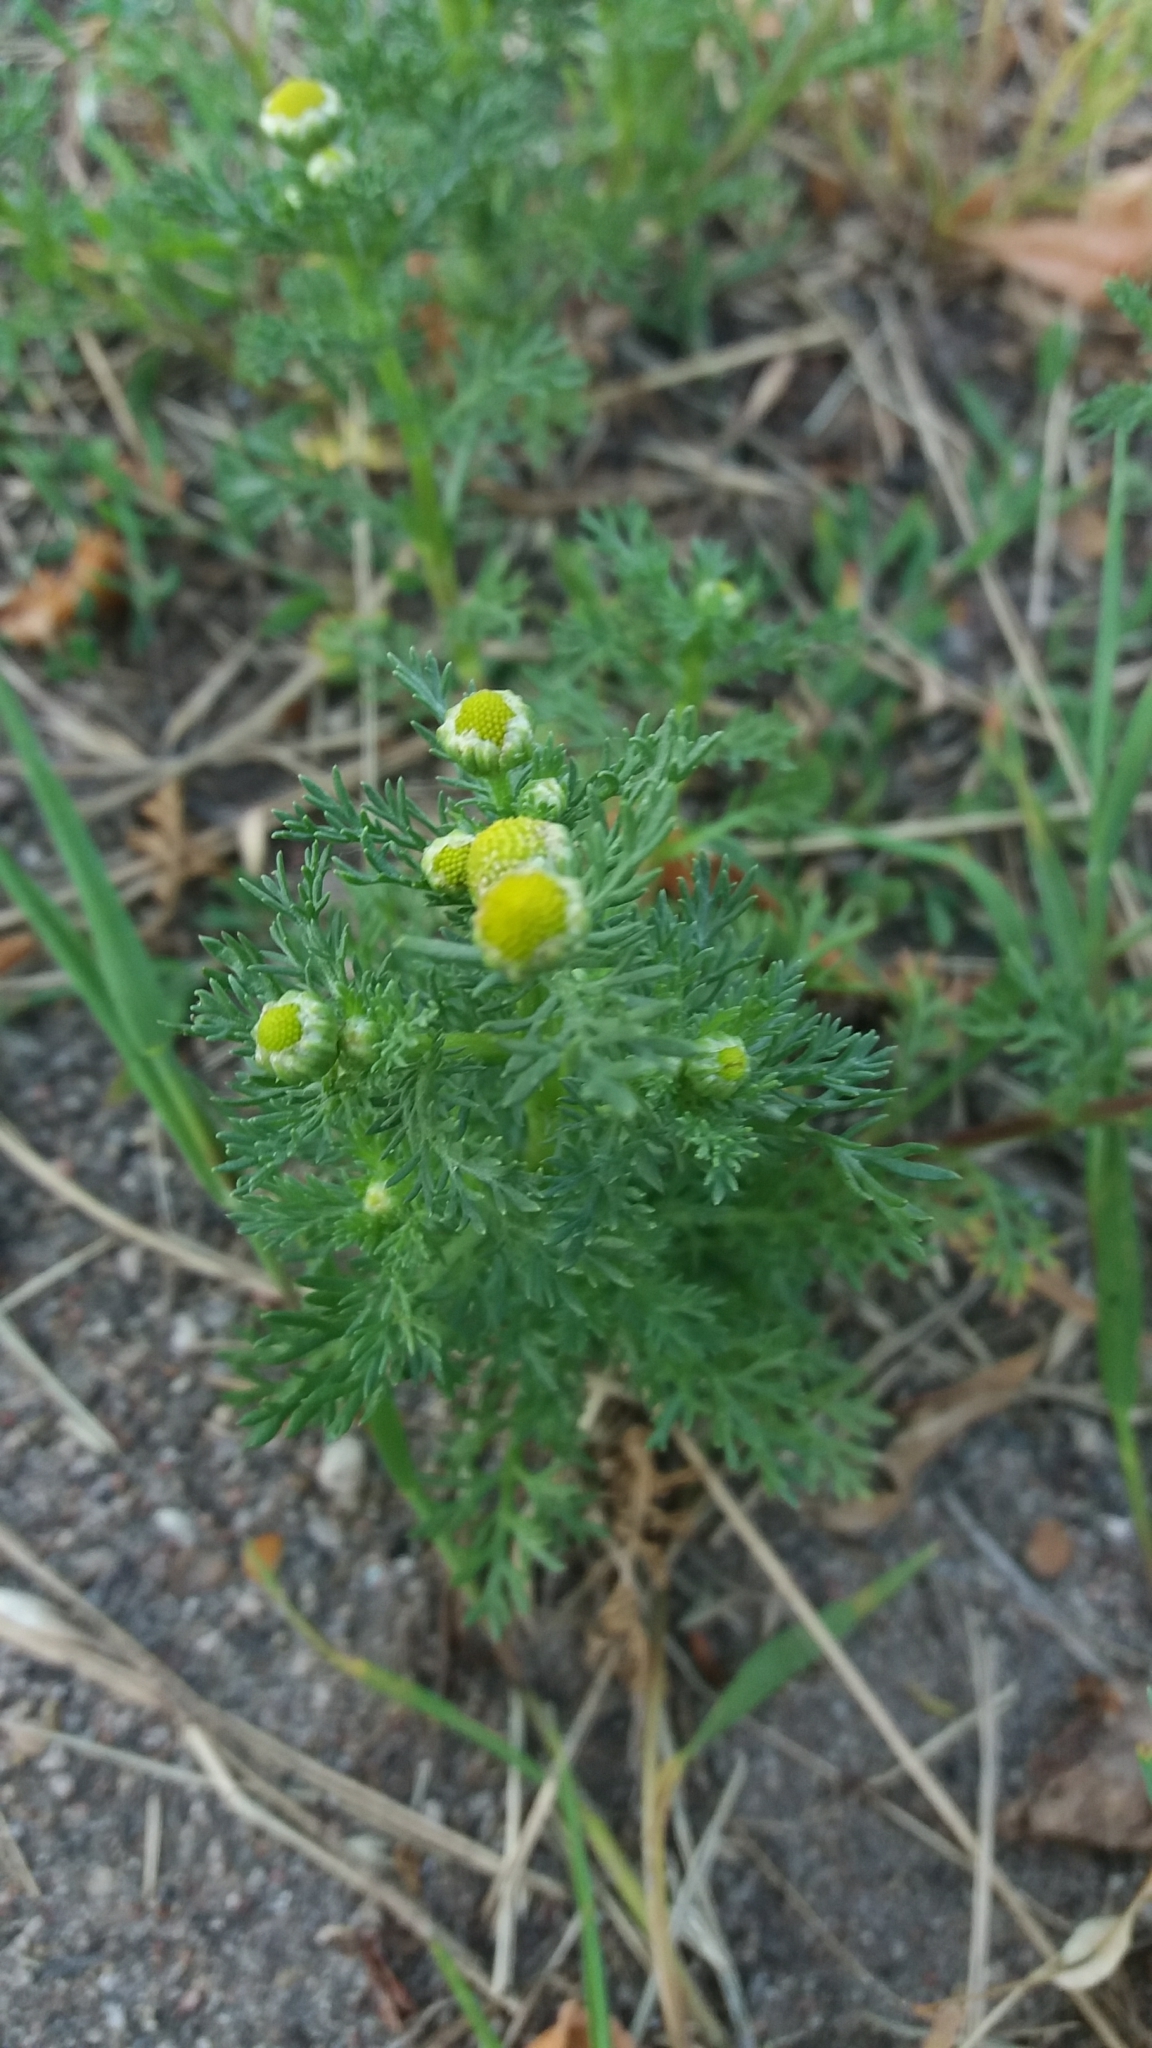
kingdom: Plantae
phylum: Tracheophyta
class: Magnoliopsida
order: Asterales
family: Asteraceae
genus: Matricaria
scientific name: Matricaria discoidea
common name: Disc mayweed
